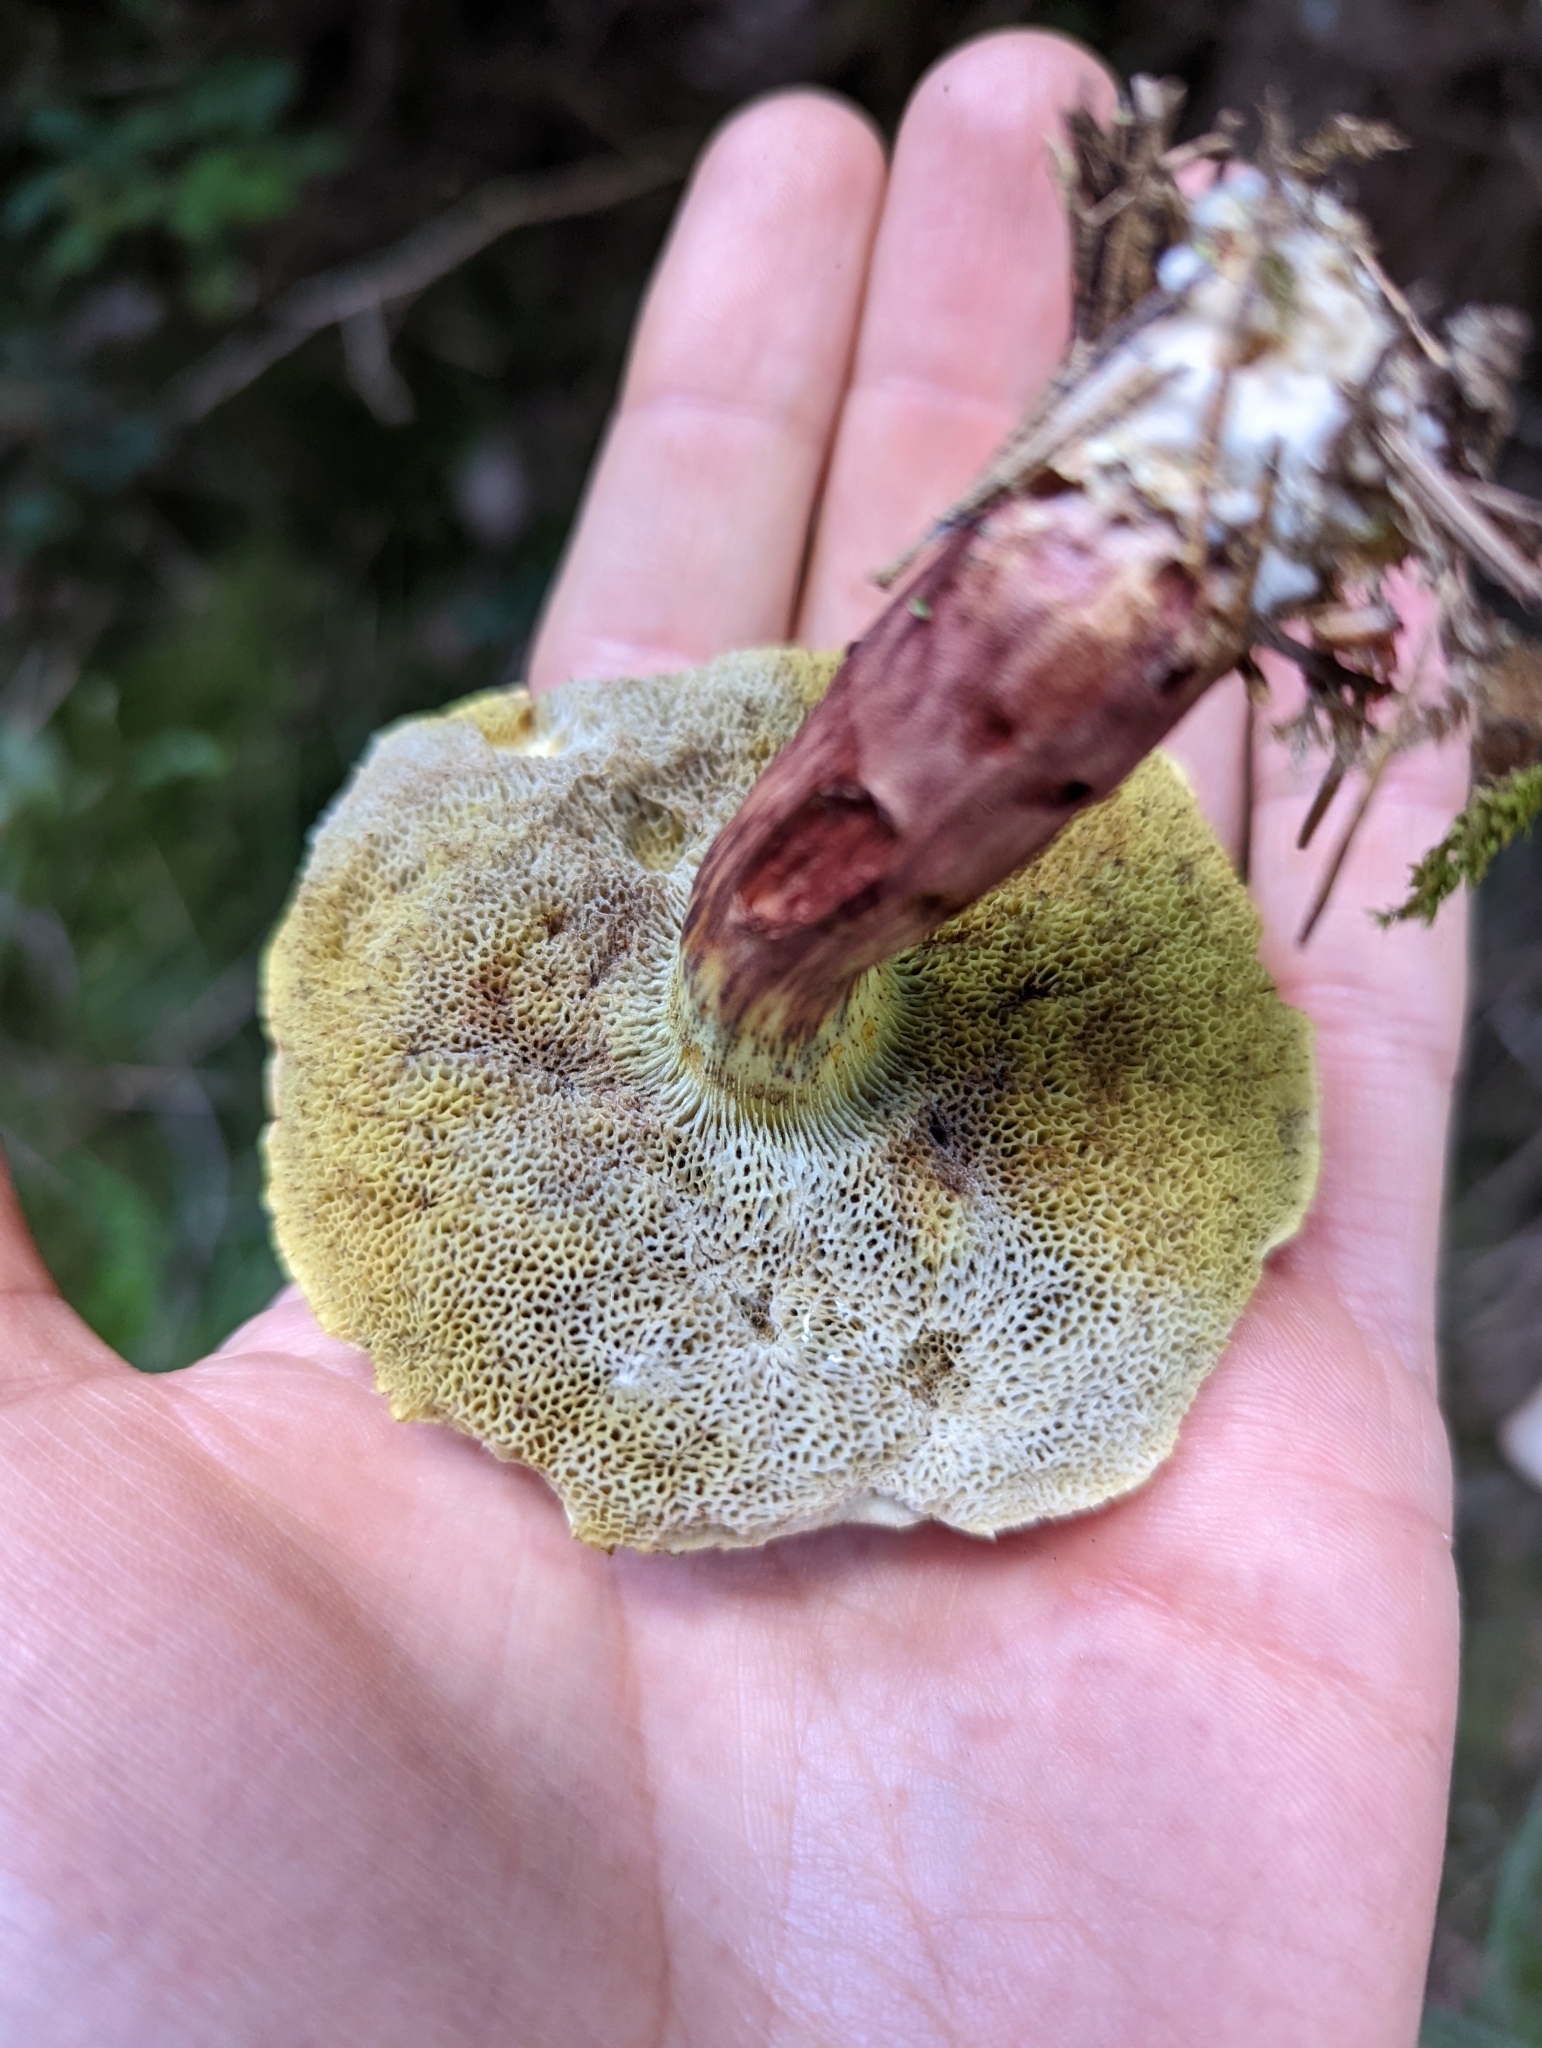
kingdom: Fungi
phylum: Basidiomycota
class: Agaricomycetes
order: Boletales
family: Boletaceae
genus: Xerocomellus
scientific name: Xerocomellus chrysenteron
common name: Red-cracking bolete
